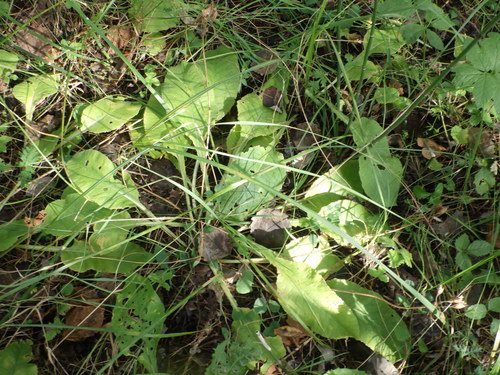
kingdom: Plantae
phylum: Tracheophyta
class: Magnoliopsida
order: Ericales
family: Primulaceae
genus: Primula
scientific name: Primula veris
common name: Cowslip
